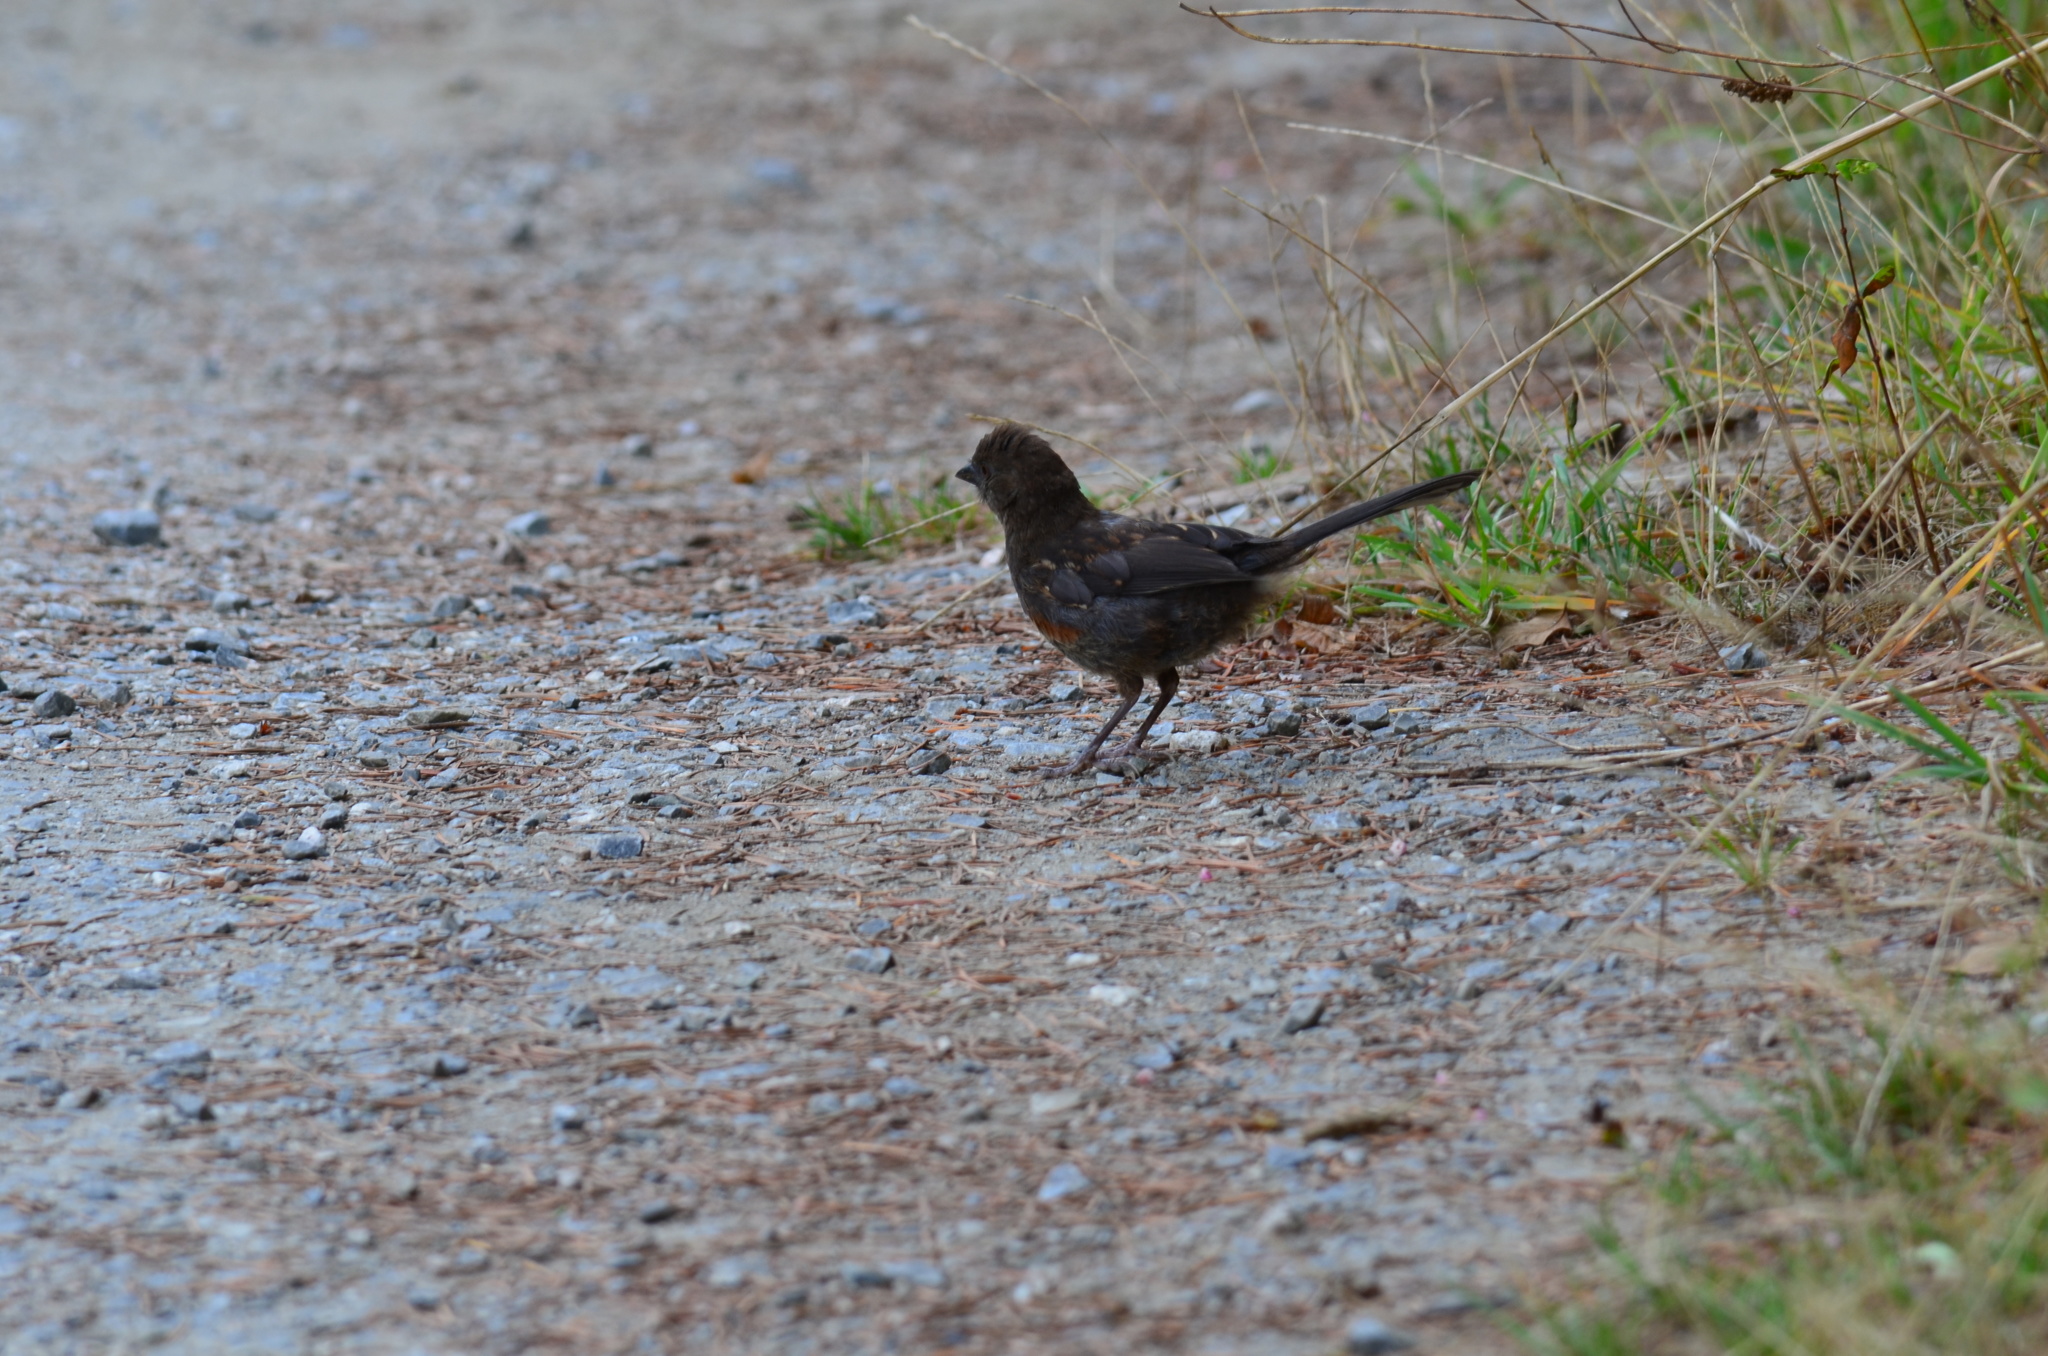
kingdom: Animalia
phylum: Chordata
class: Aves
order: Passeriformes
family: Passerellidae
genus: Pipilo
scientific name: Pipilo maculatus
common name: Spotted towhee
